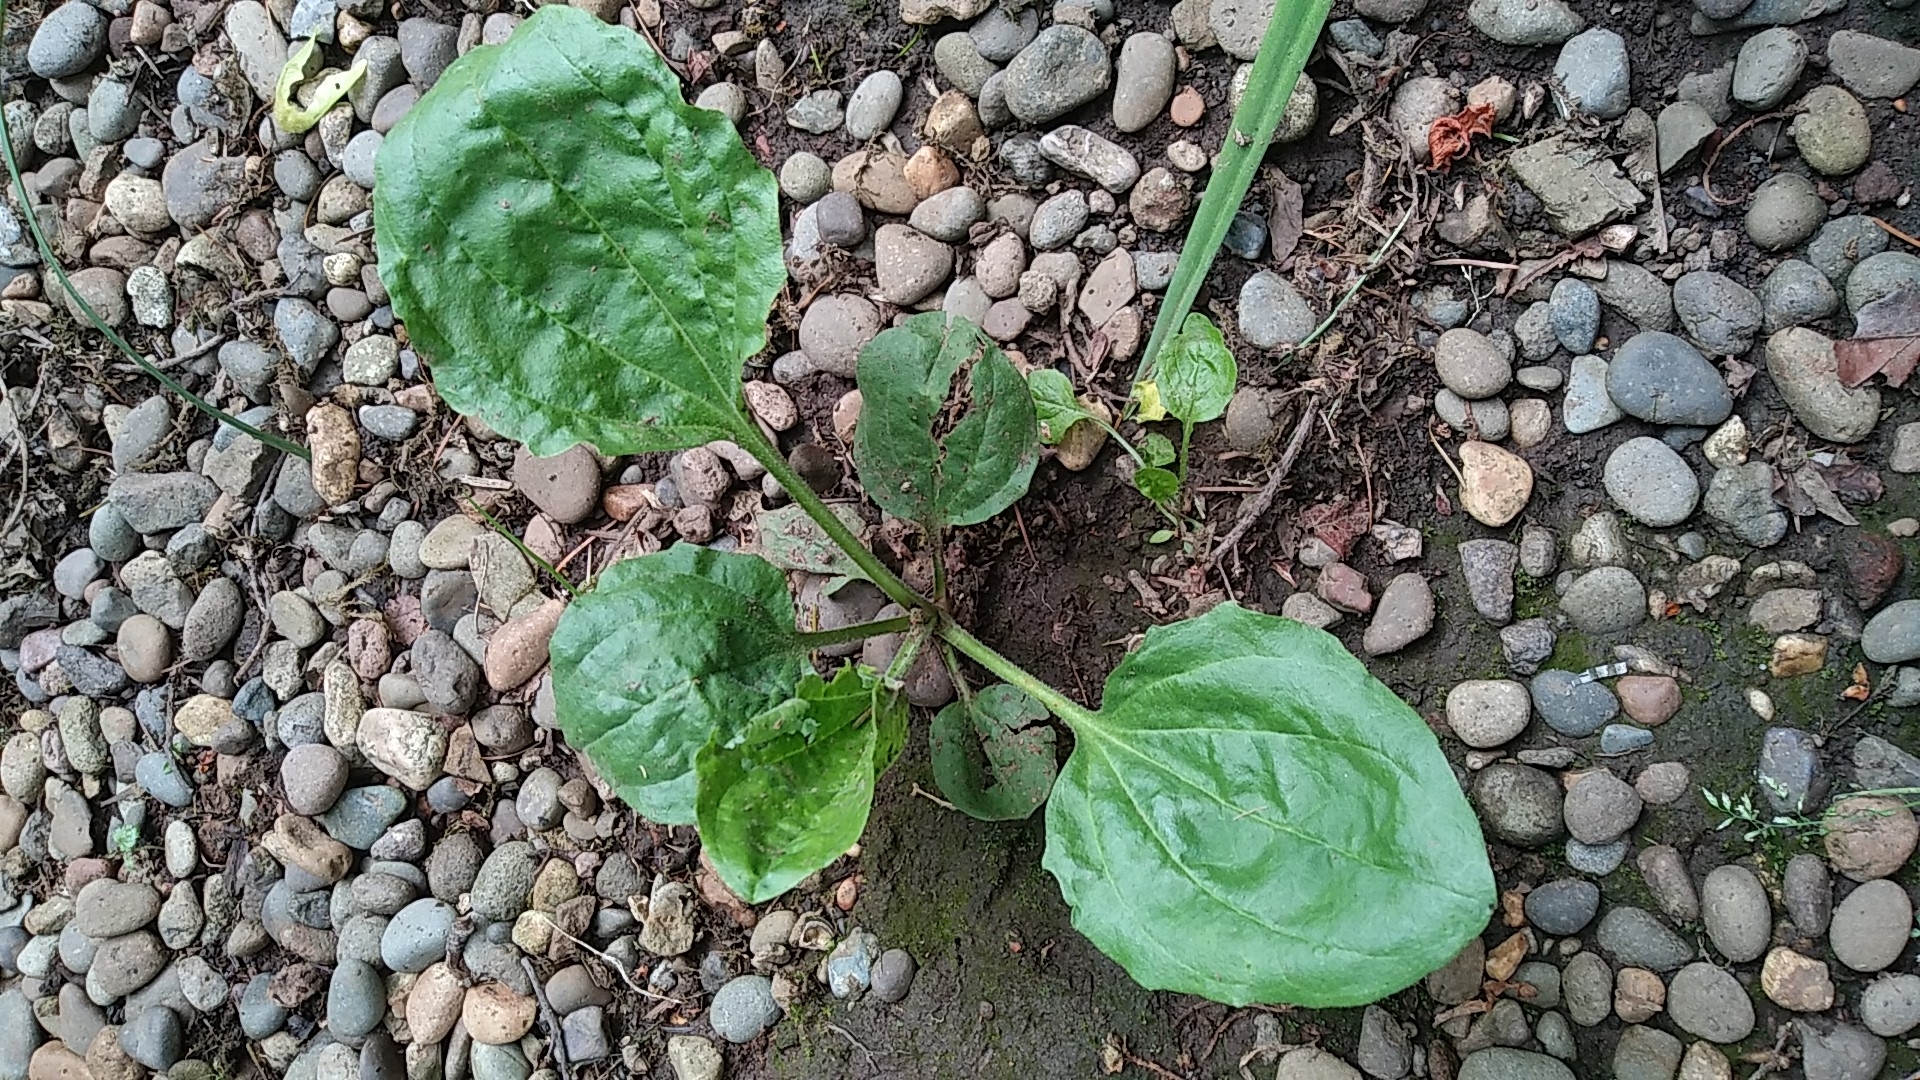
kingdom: Plantae
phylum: Tracheophyta
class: Magnoliopsida
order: Lamiales
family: Plantaginaceae
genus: Plantago
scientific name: Plantago major
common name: Common plantain
